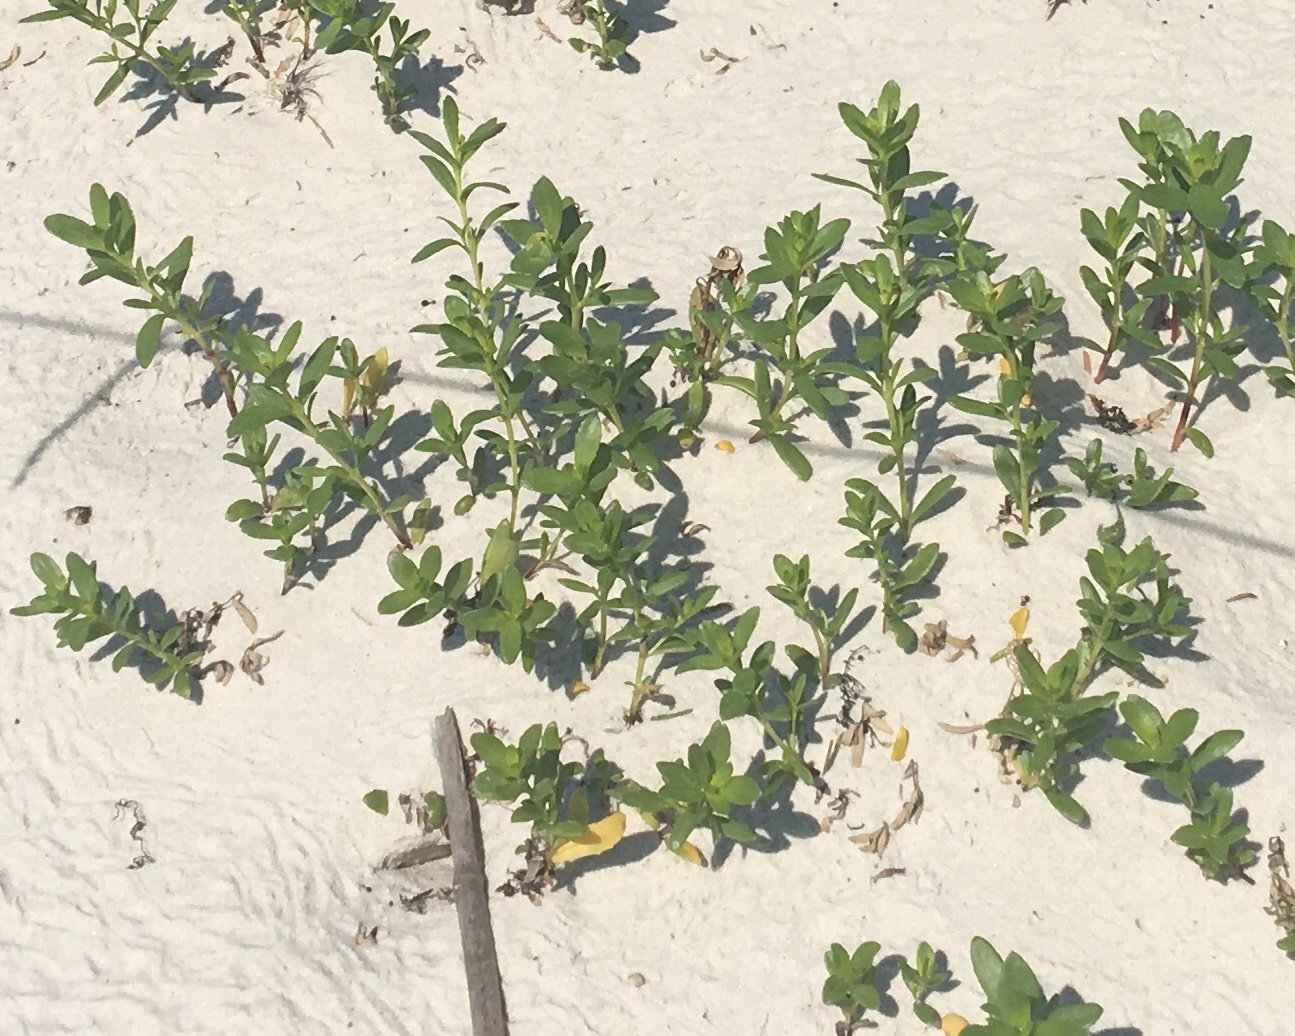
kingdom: Plantae
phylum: Tracheophyta
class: Magnoliopsida
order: Asterales
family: Asteraceae
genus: Iva
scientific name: Iva imbricata
